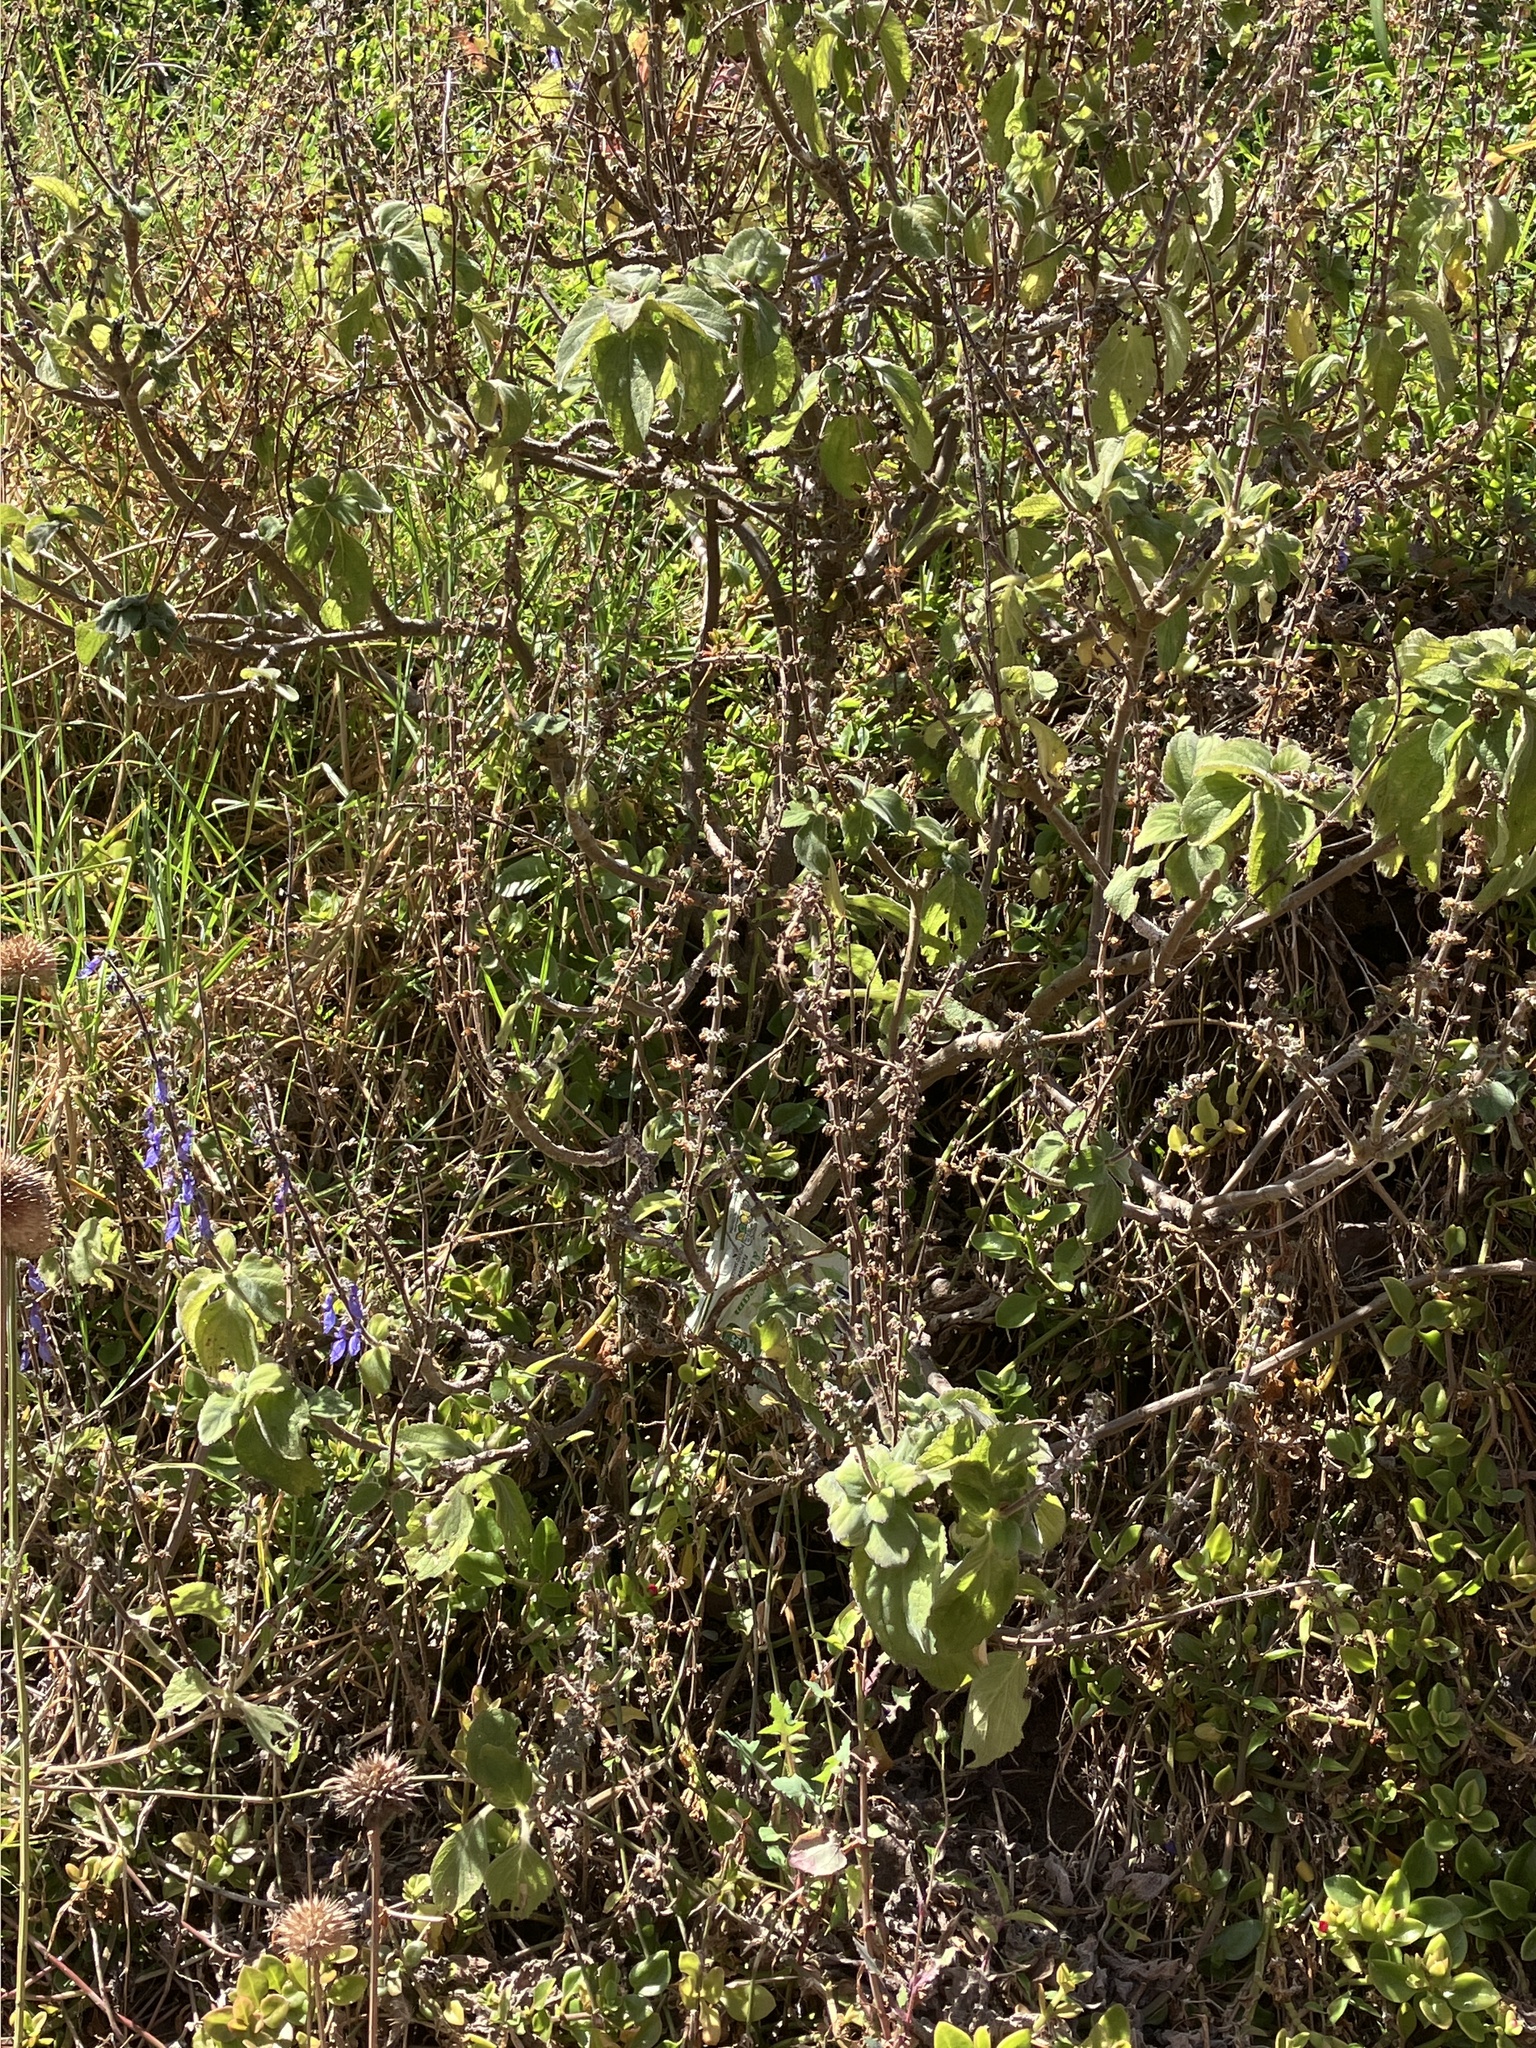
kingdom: Plantae
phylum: Tracheophyta
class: Magnoliopsida
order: Lamiales
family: Lamiaceae
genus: Coleus
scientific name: Coleus barbatus
